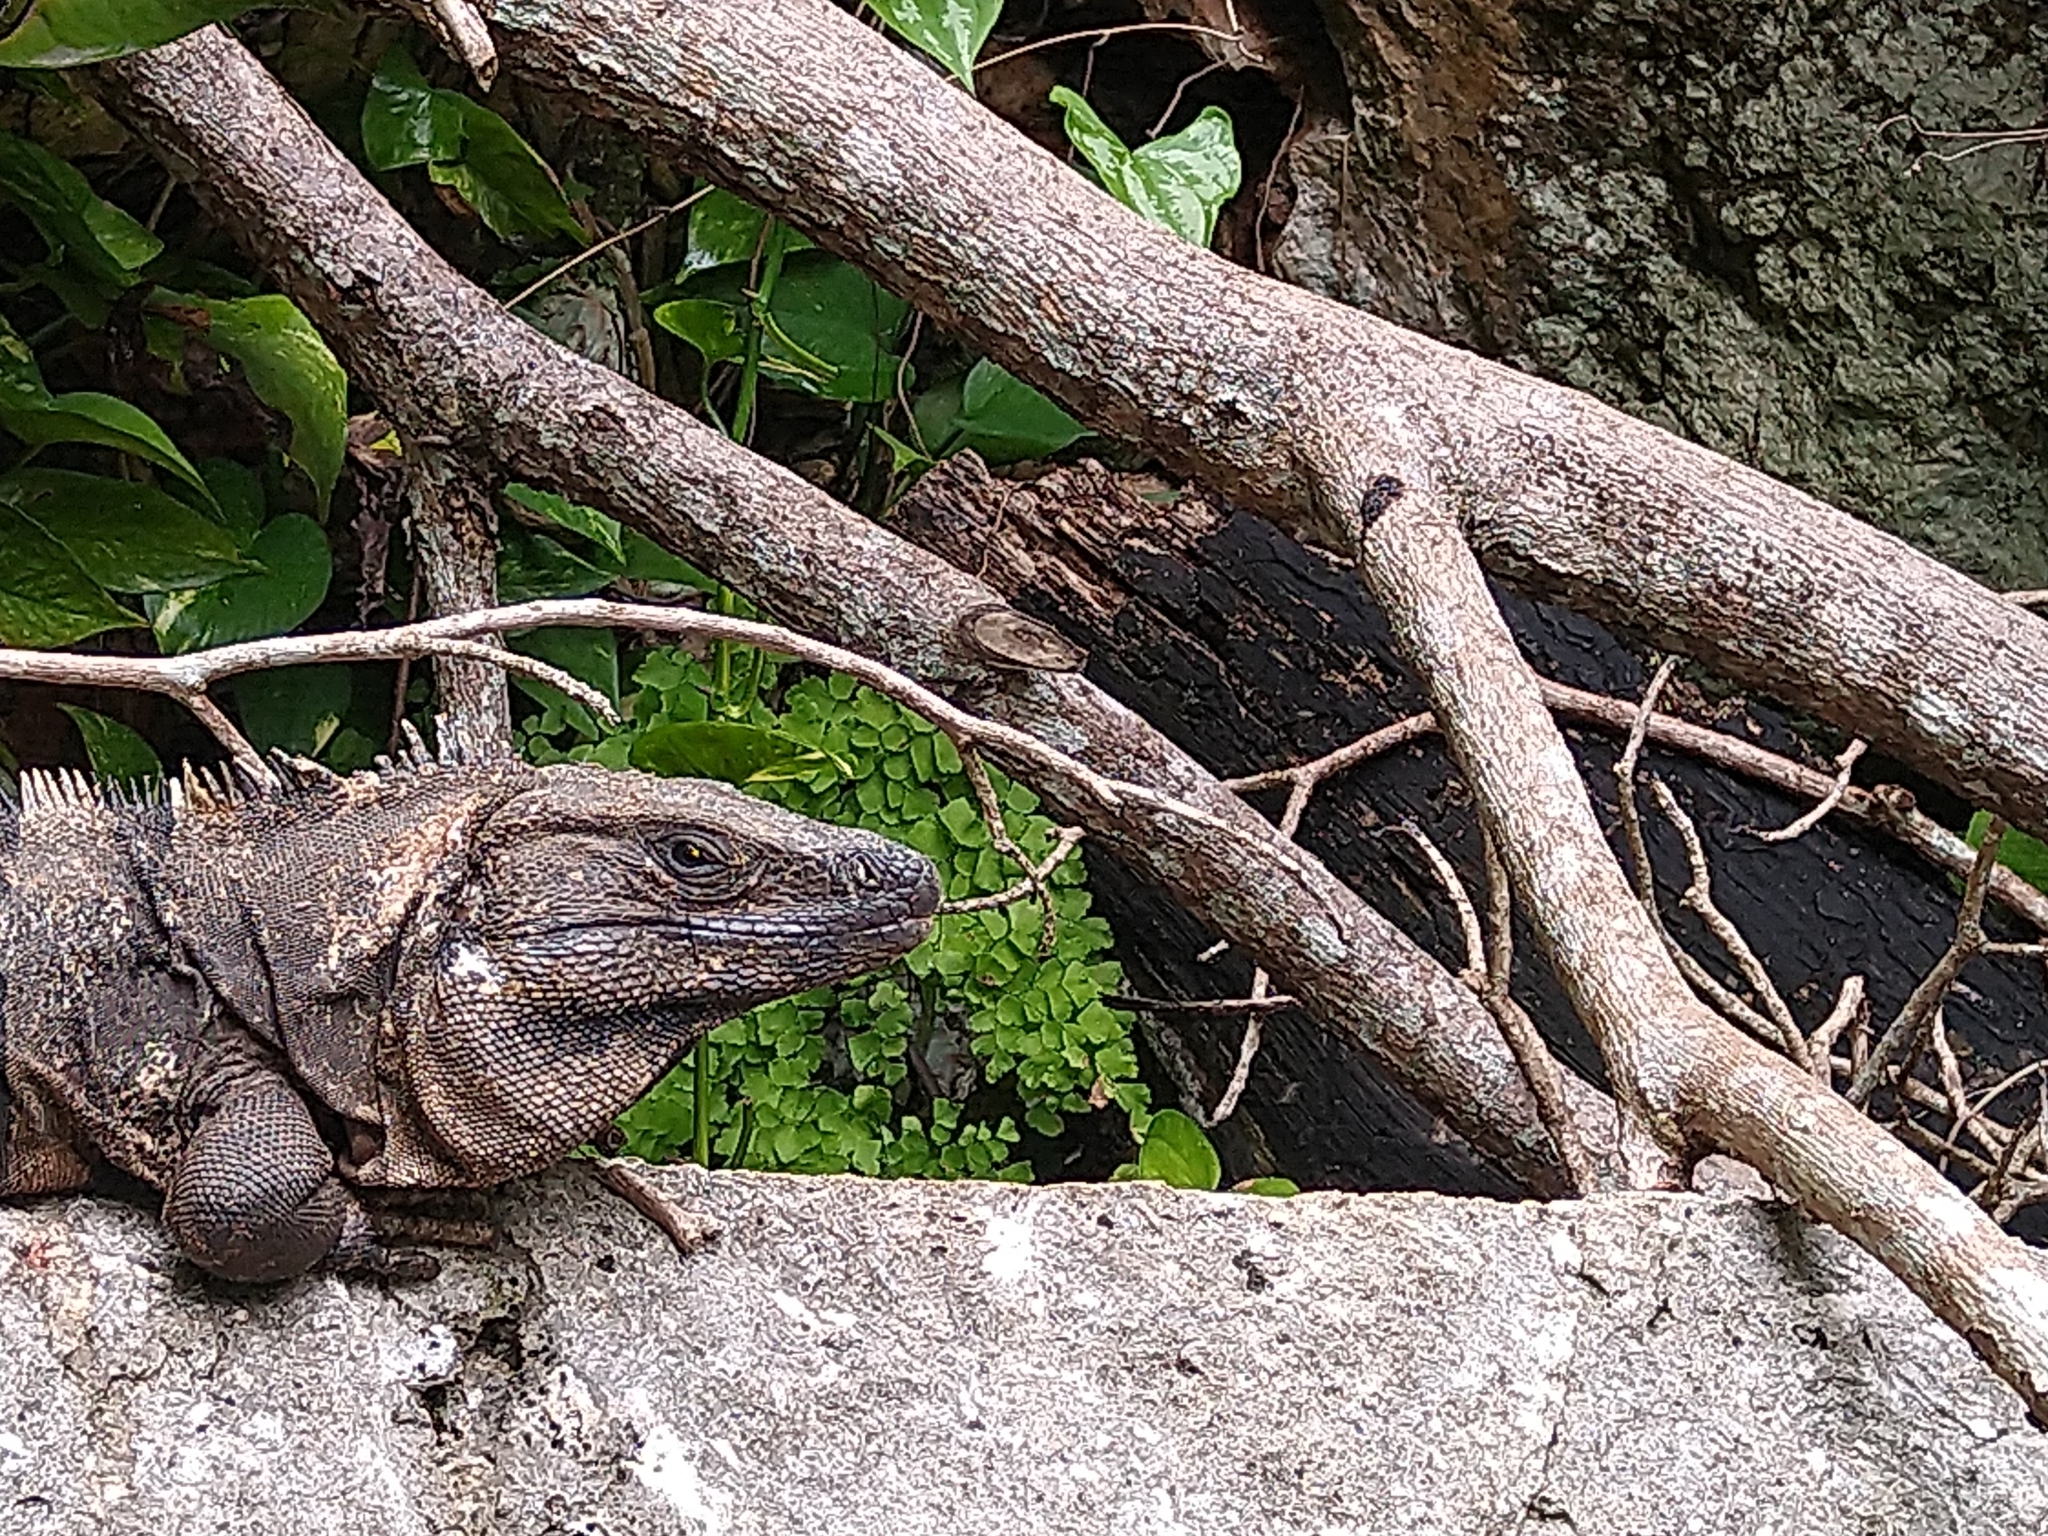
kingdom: Animalia
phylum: Chordata
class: Squamata
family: Iguanidae
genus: Ctenosaura
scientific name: Ctenosaura similis
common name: Black spiny-tailed iguana
